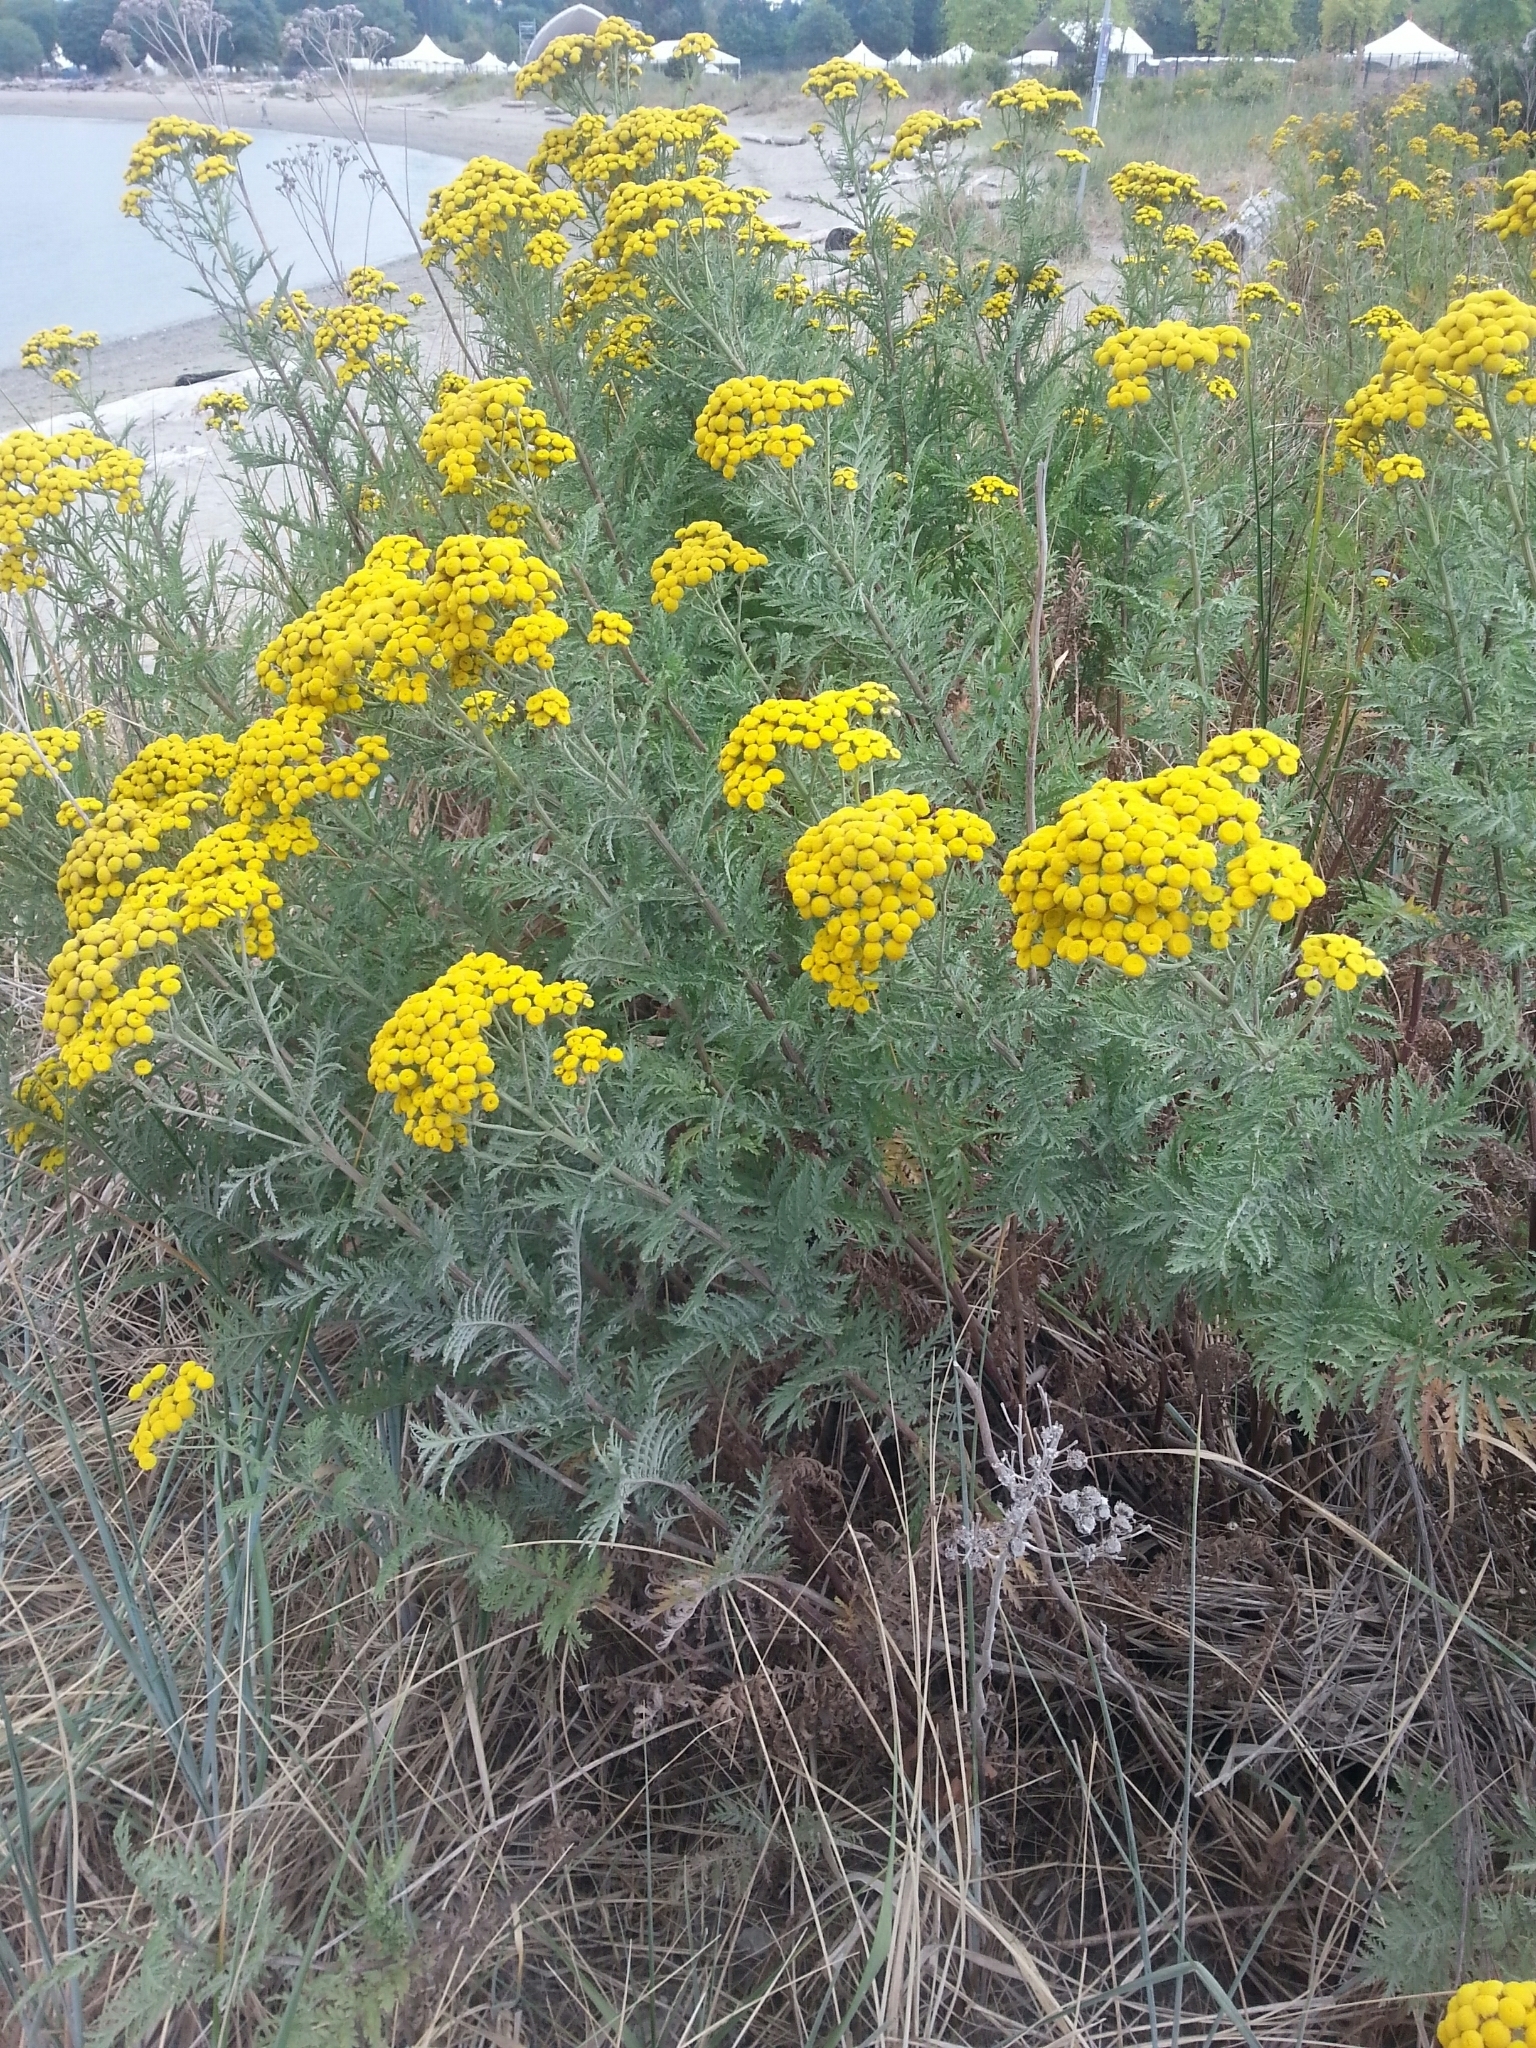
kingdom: Plantae
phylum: Tracheophyta
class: Magnoliopsida
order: Asterales
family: Asteraceae
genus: Tanacetum
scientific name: Tanacetum vulgare
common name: Common tansy
